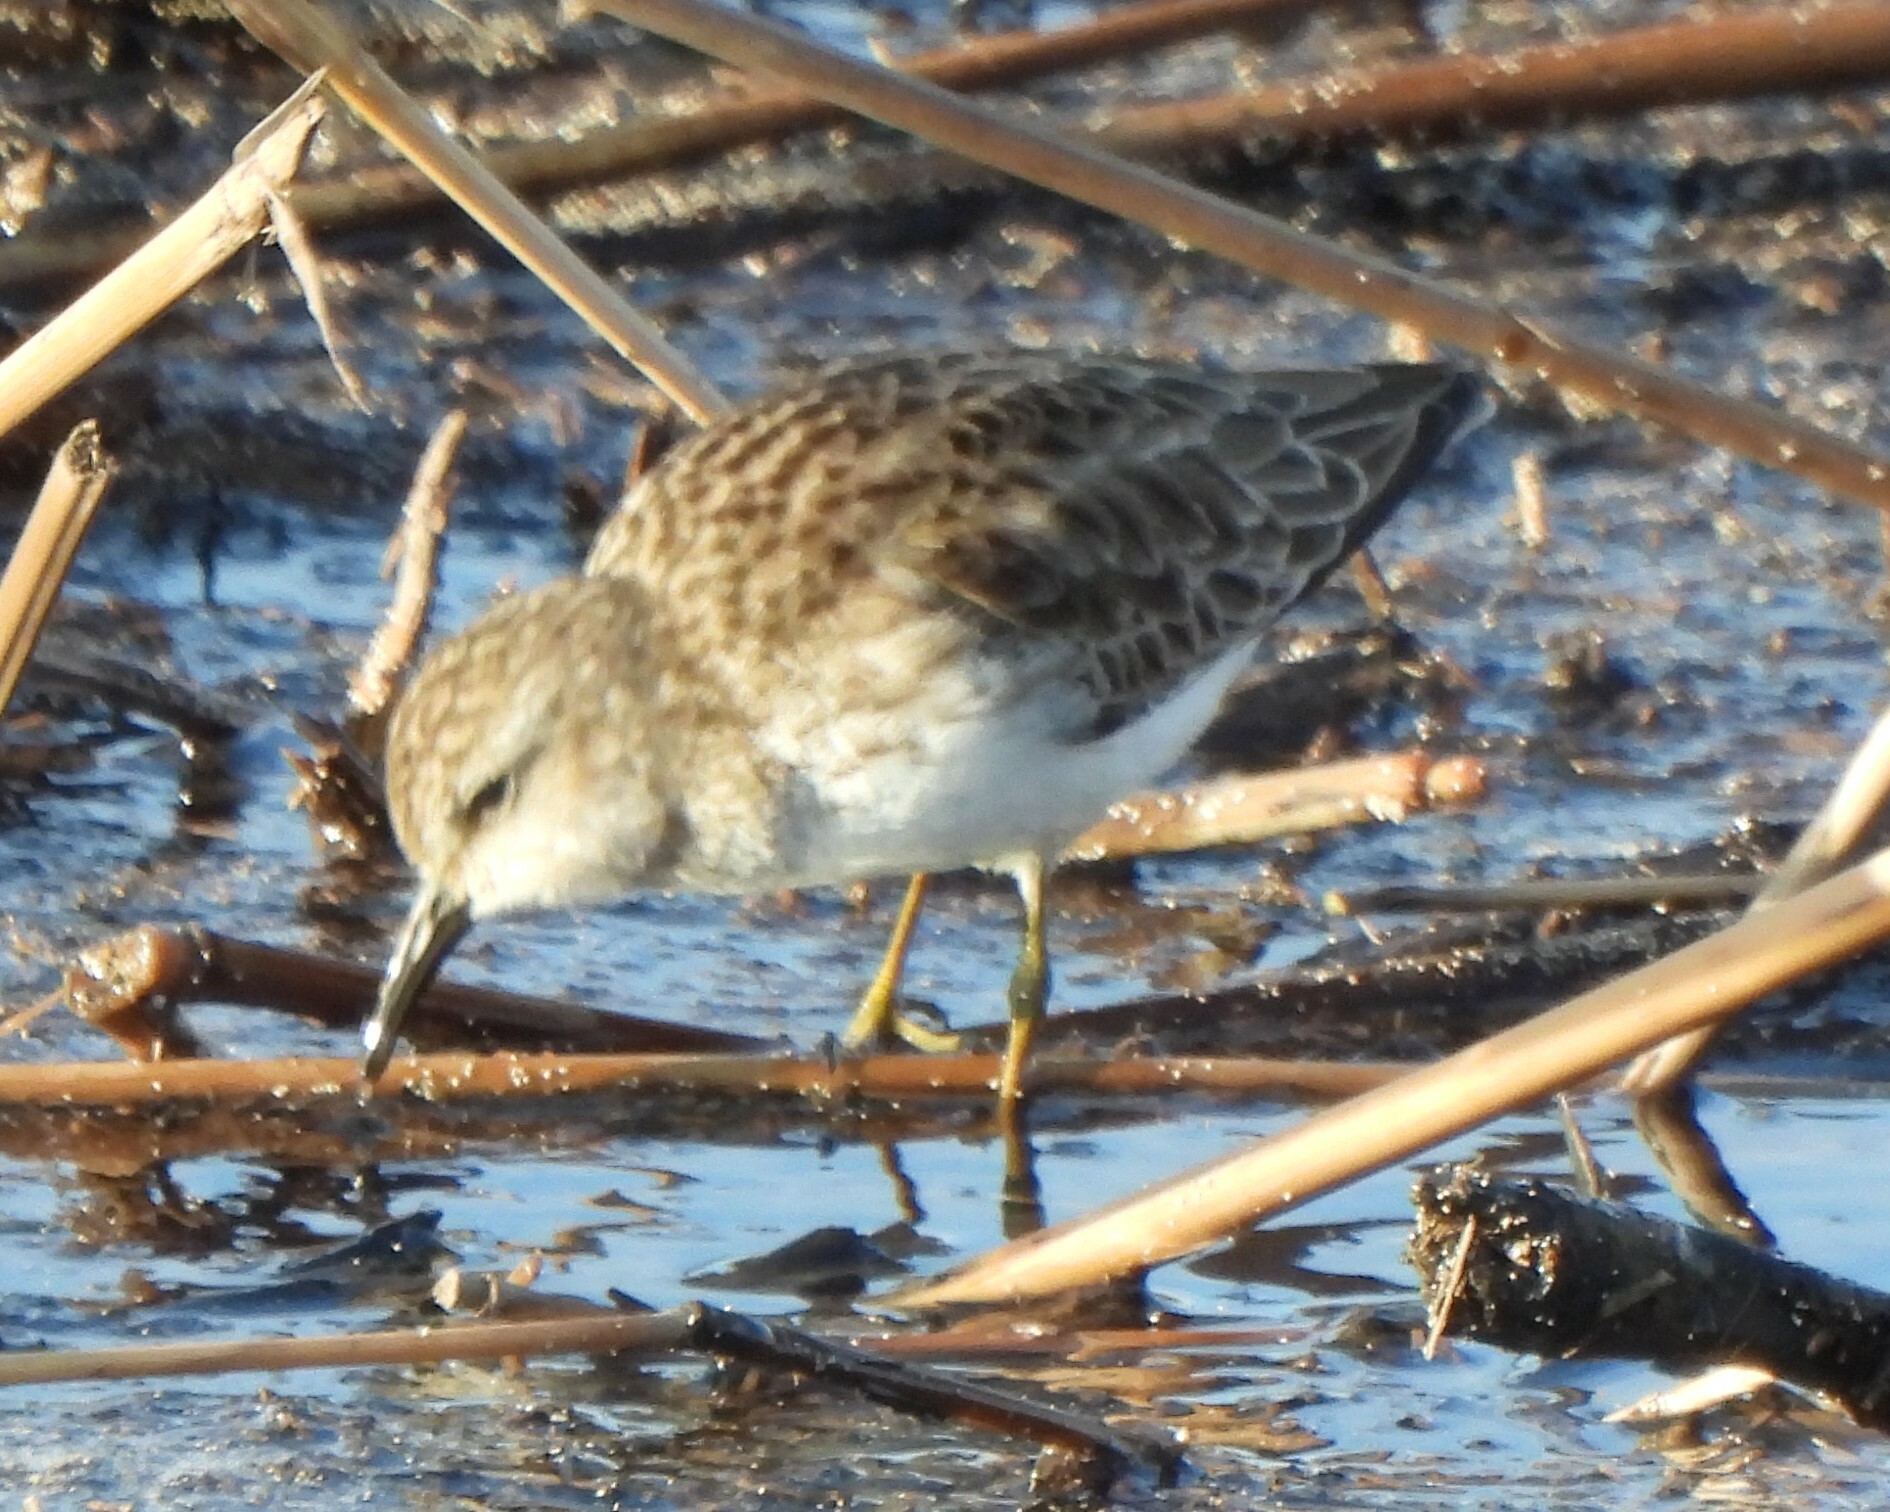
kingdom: Animalia
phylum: Chordata
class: Aves
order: Charadriiformes
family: Scolopacidae
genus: Calidris
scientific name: Calidris minutilla
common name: Least sandpiper
